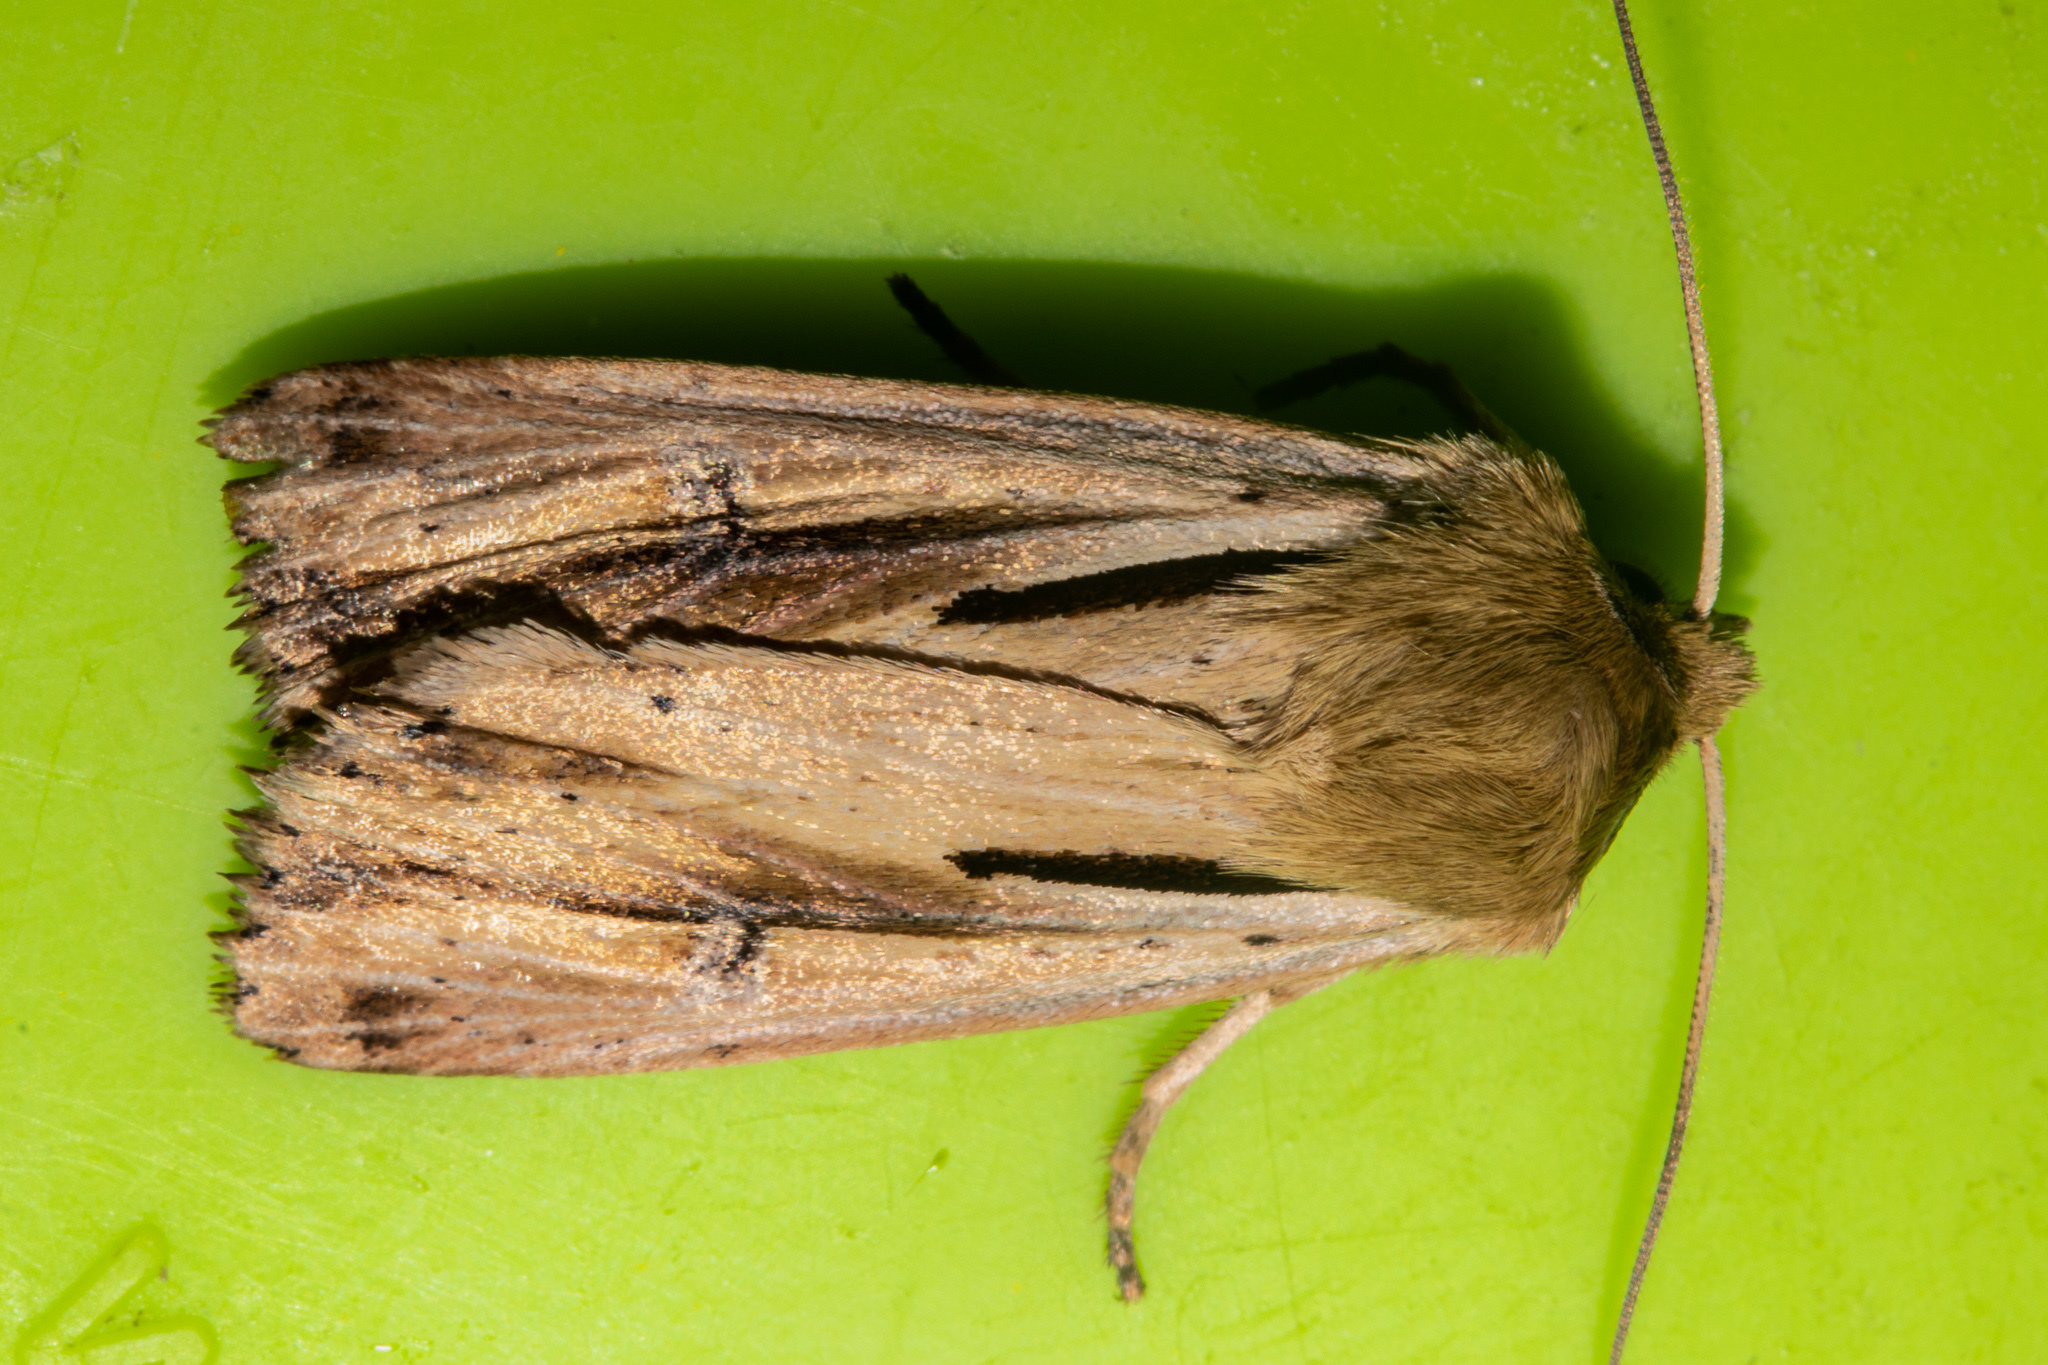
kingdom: Animalia
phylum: Arthropoda
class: Insecta
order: Lepidoptera
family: Noctuidae
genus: Ichneutica
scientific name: Ichneutica propria
